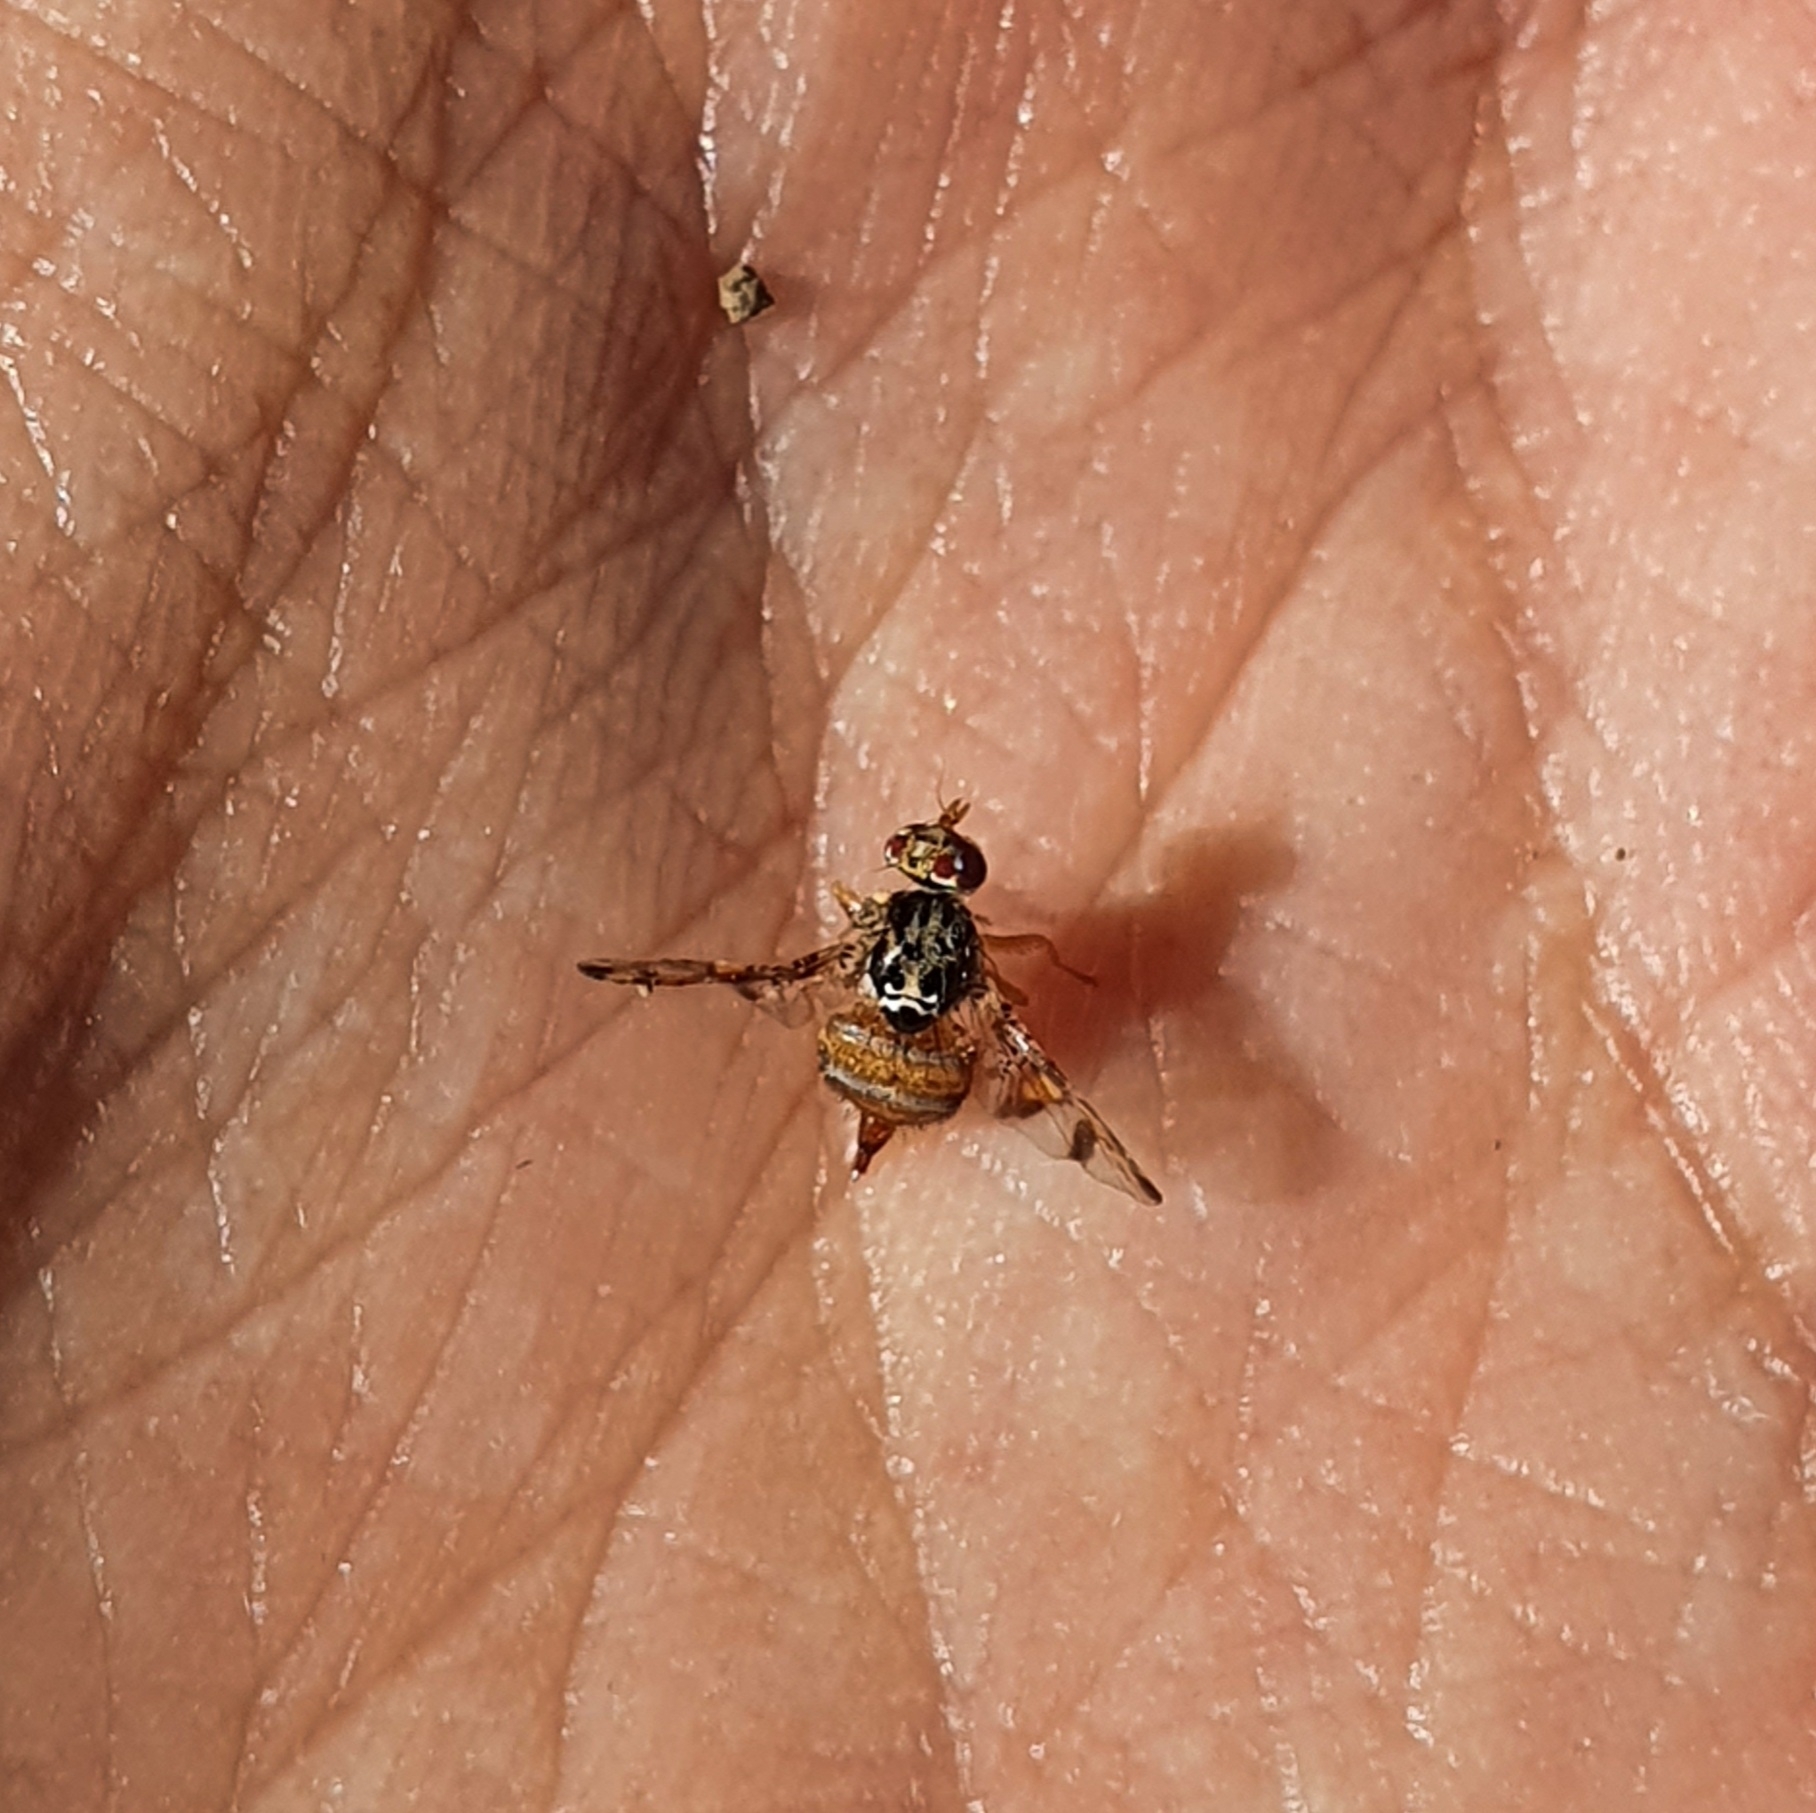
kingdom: Animalia
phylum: Arthropoda
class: Insecta
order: Diptera
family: Tephritidae
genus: Ceratitis
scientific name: Ceratitis capitata
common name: Mediterranean fruit fly
